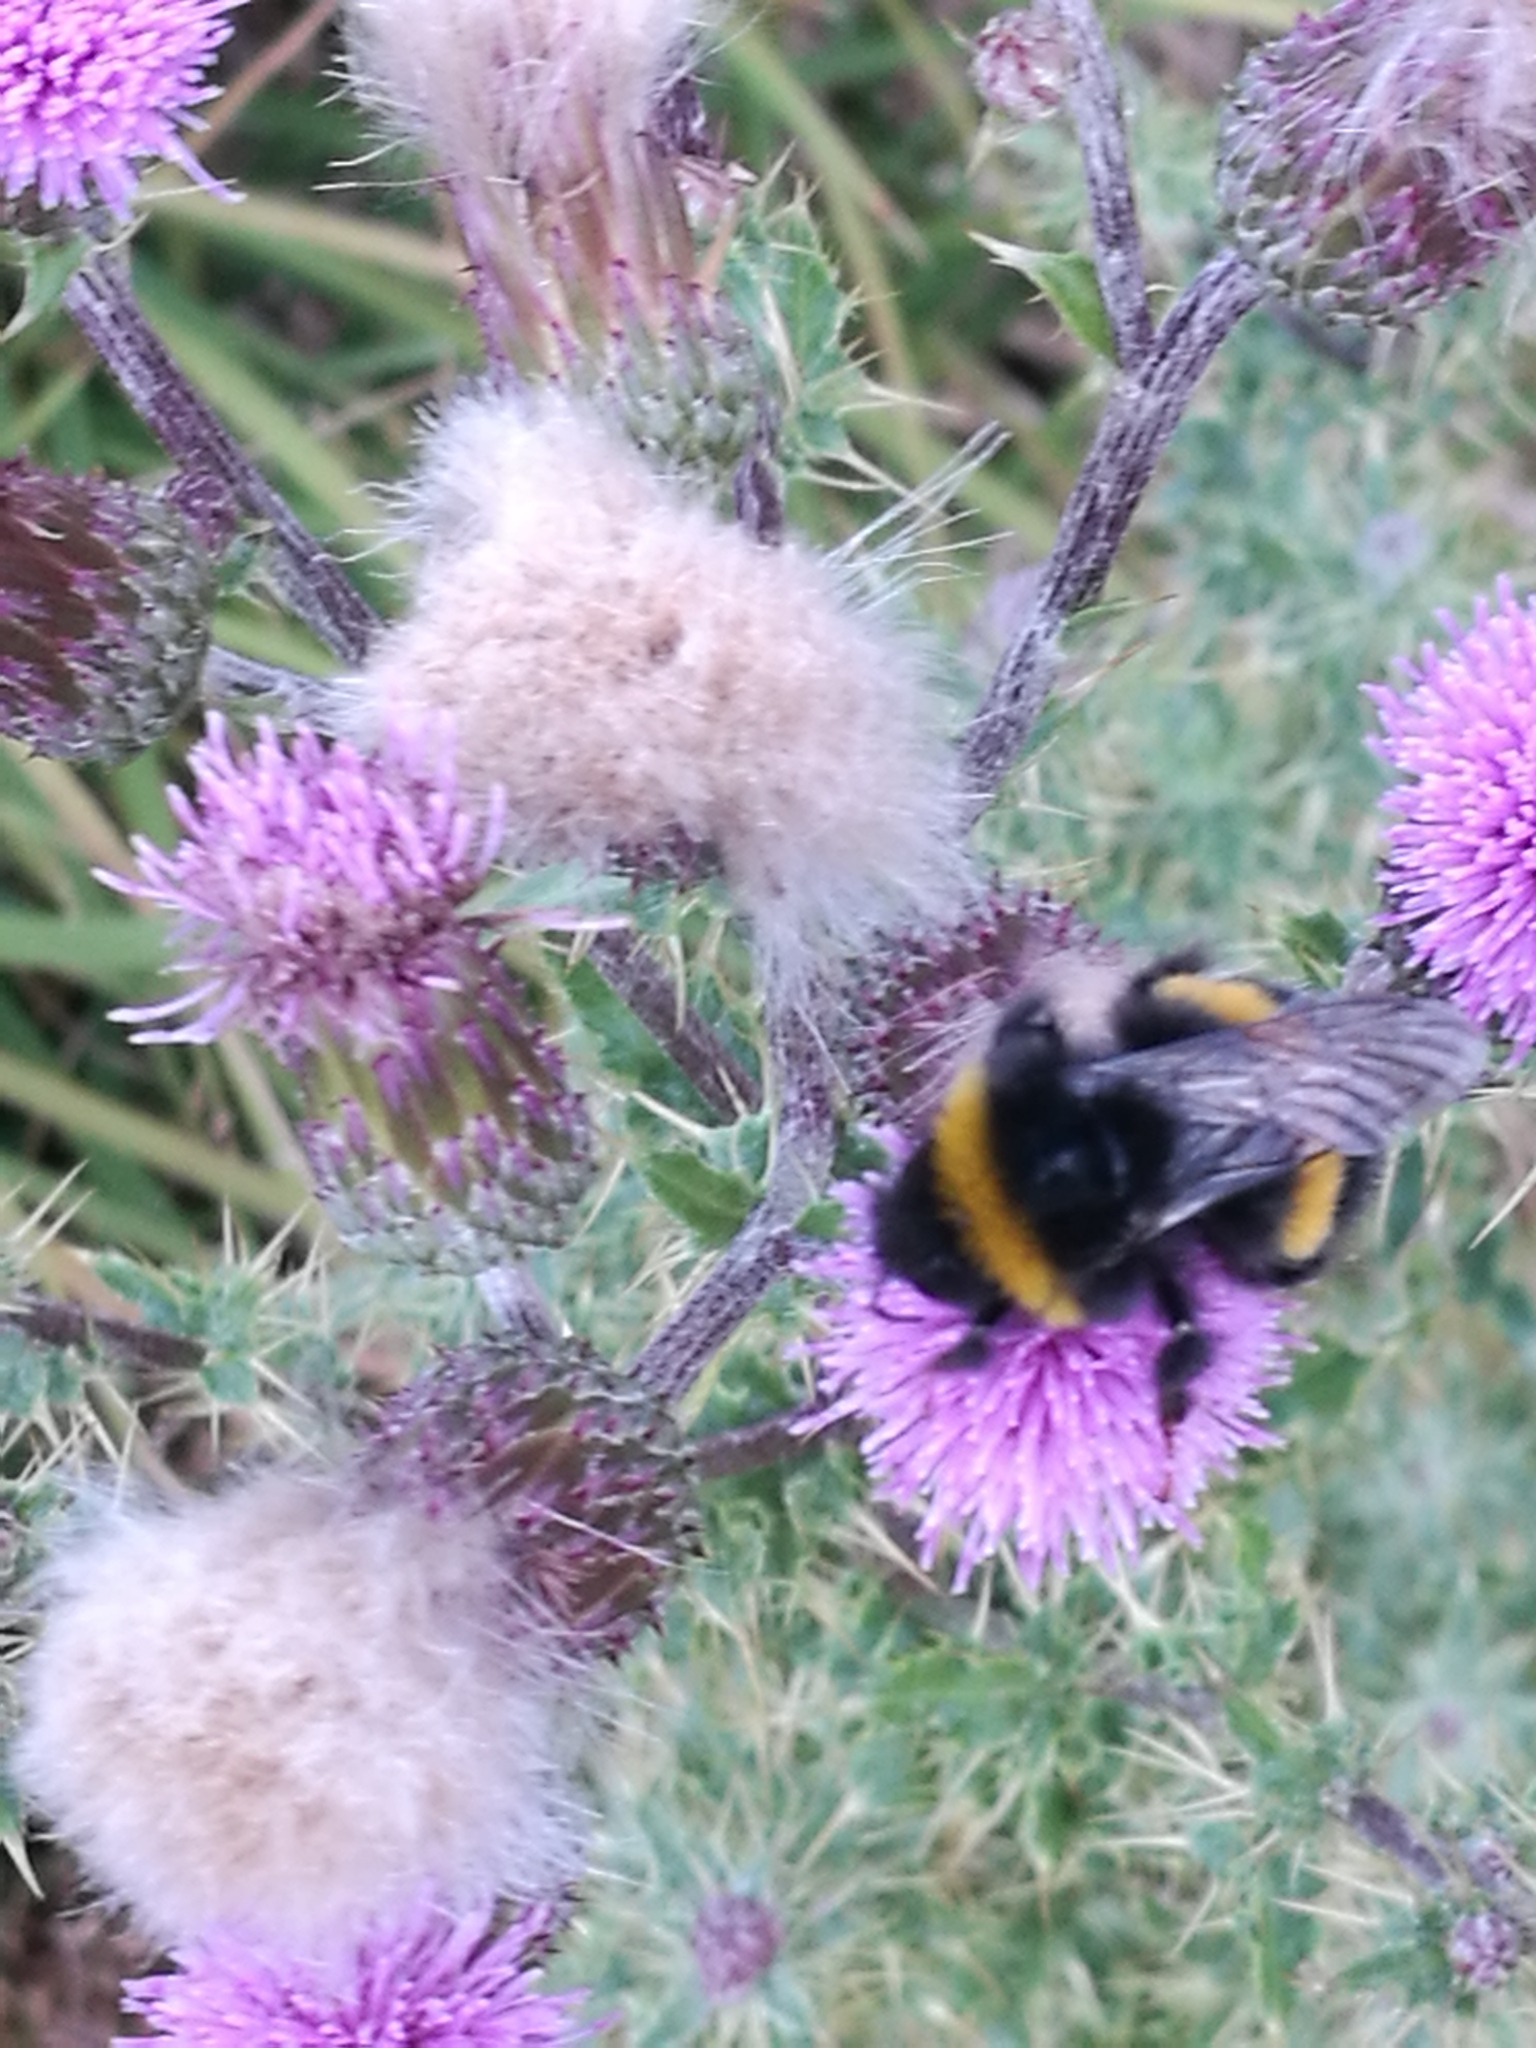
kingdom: Animalia
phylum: Arthropoda
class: Insecta
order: Hymenoptera
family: Apidae
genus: Bombus
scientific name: Bombus terrestris
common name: Buff-tailed bumblebee
